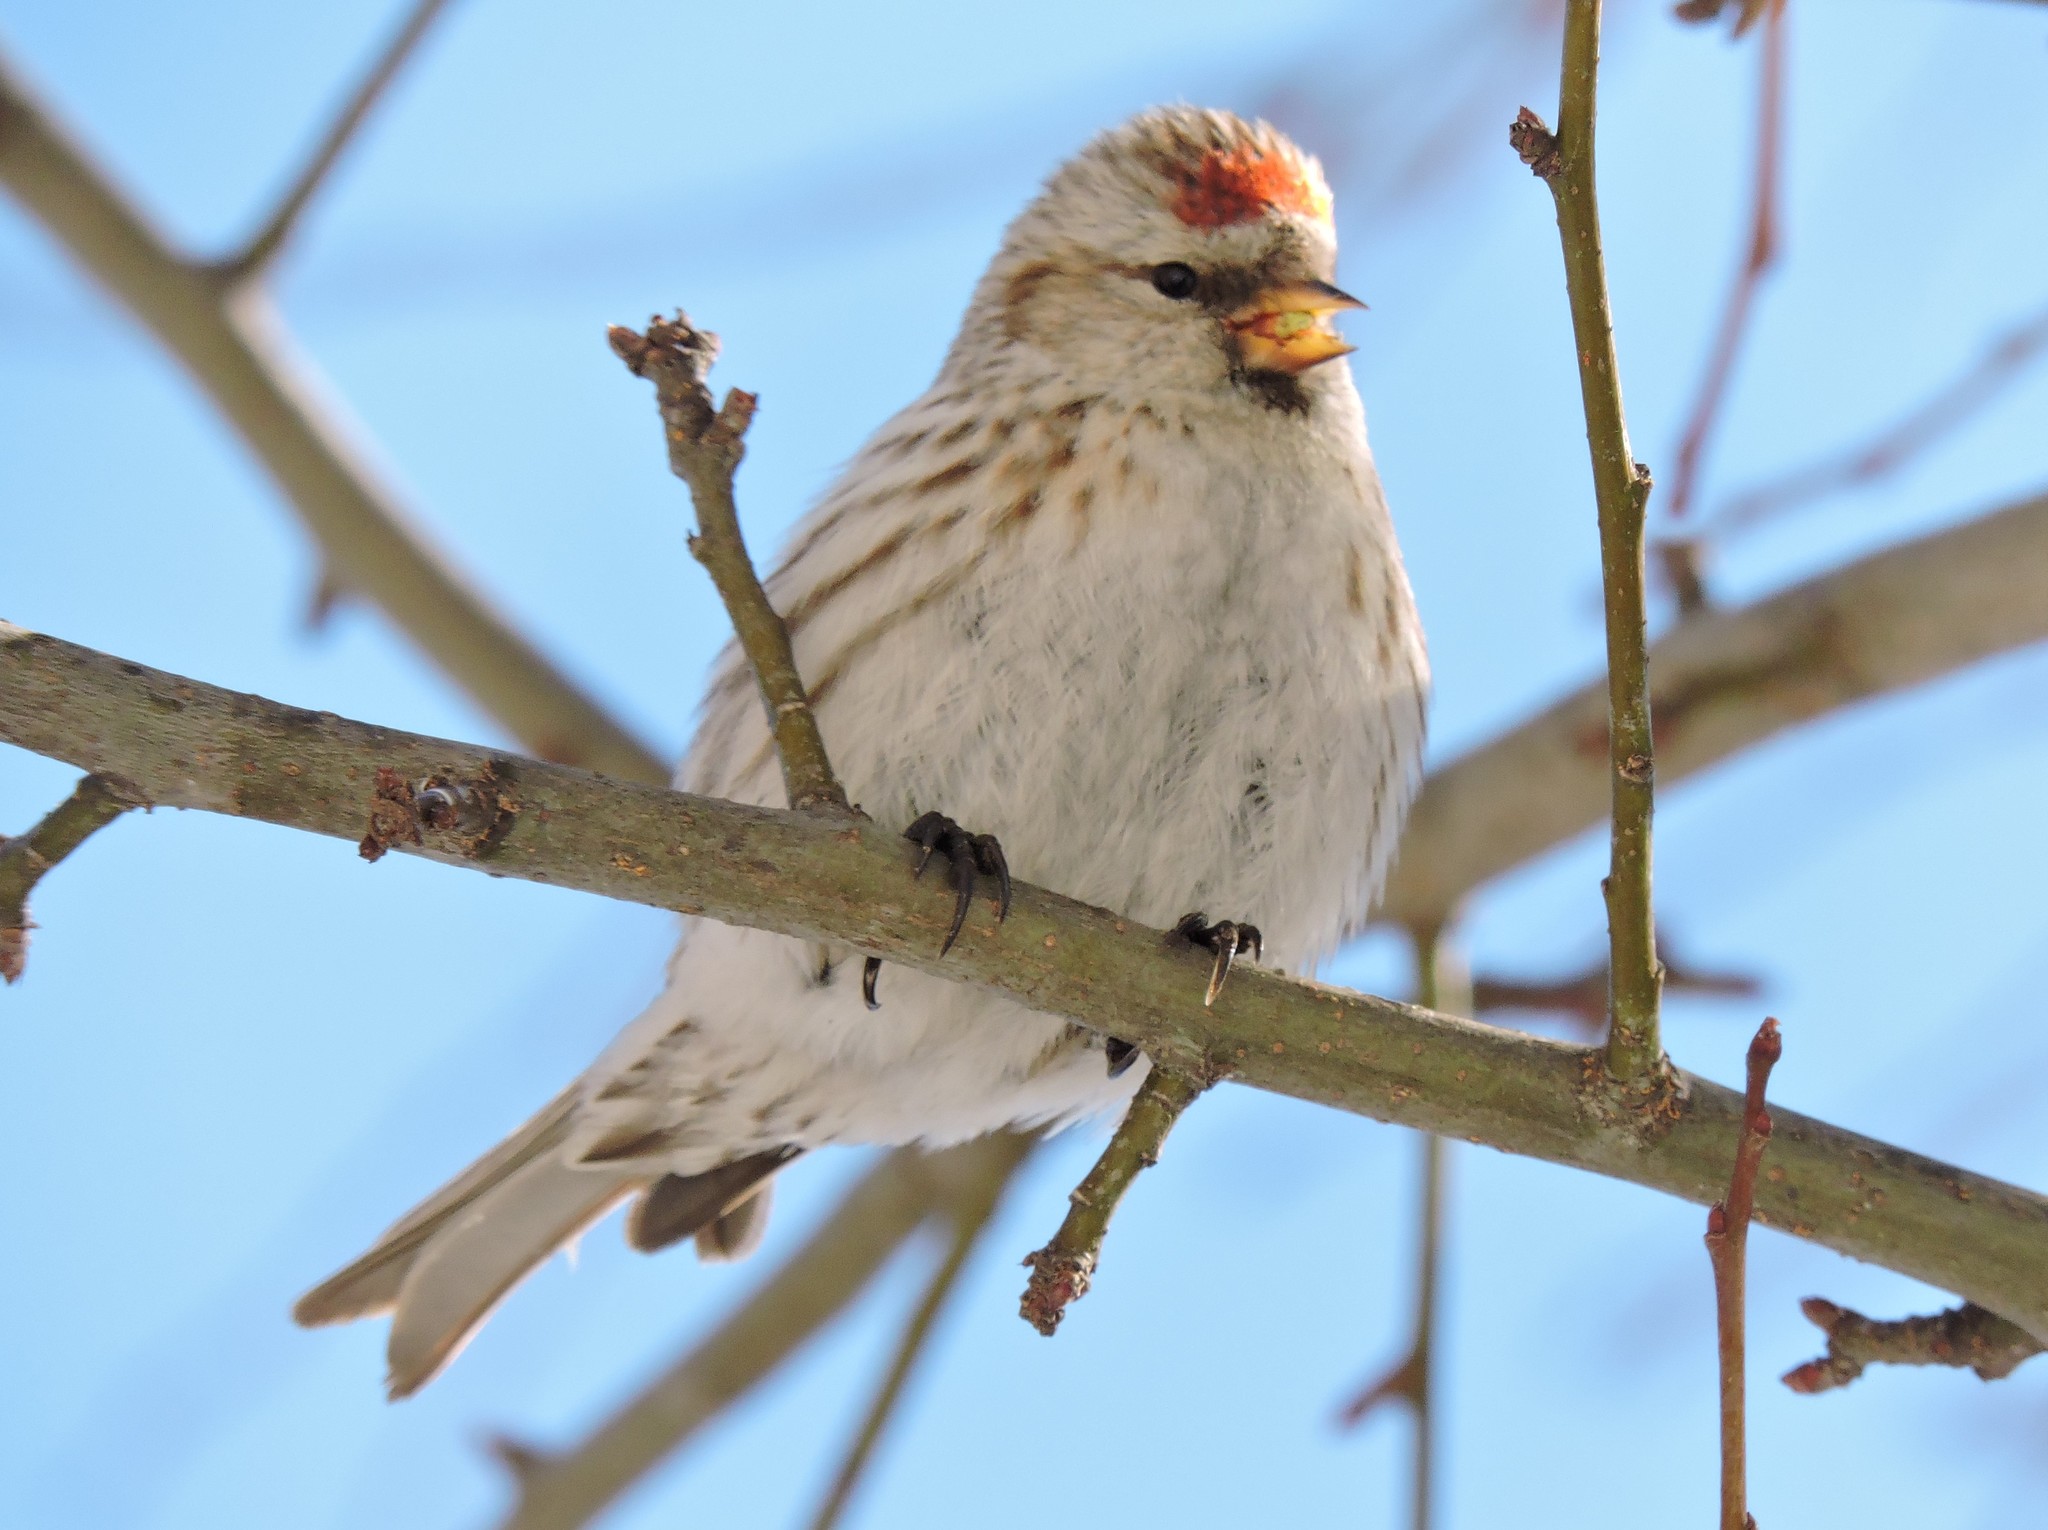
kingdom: Animalia
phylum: Chordata
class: Aves
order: Passeriformes
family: Fringillidae
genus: Acanthis
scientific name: Acanthis flammea
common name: Common redpoll
